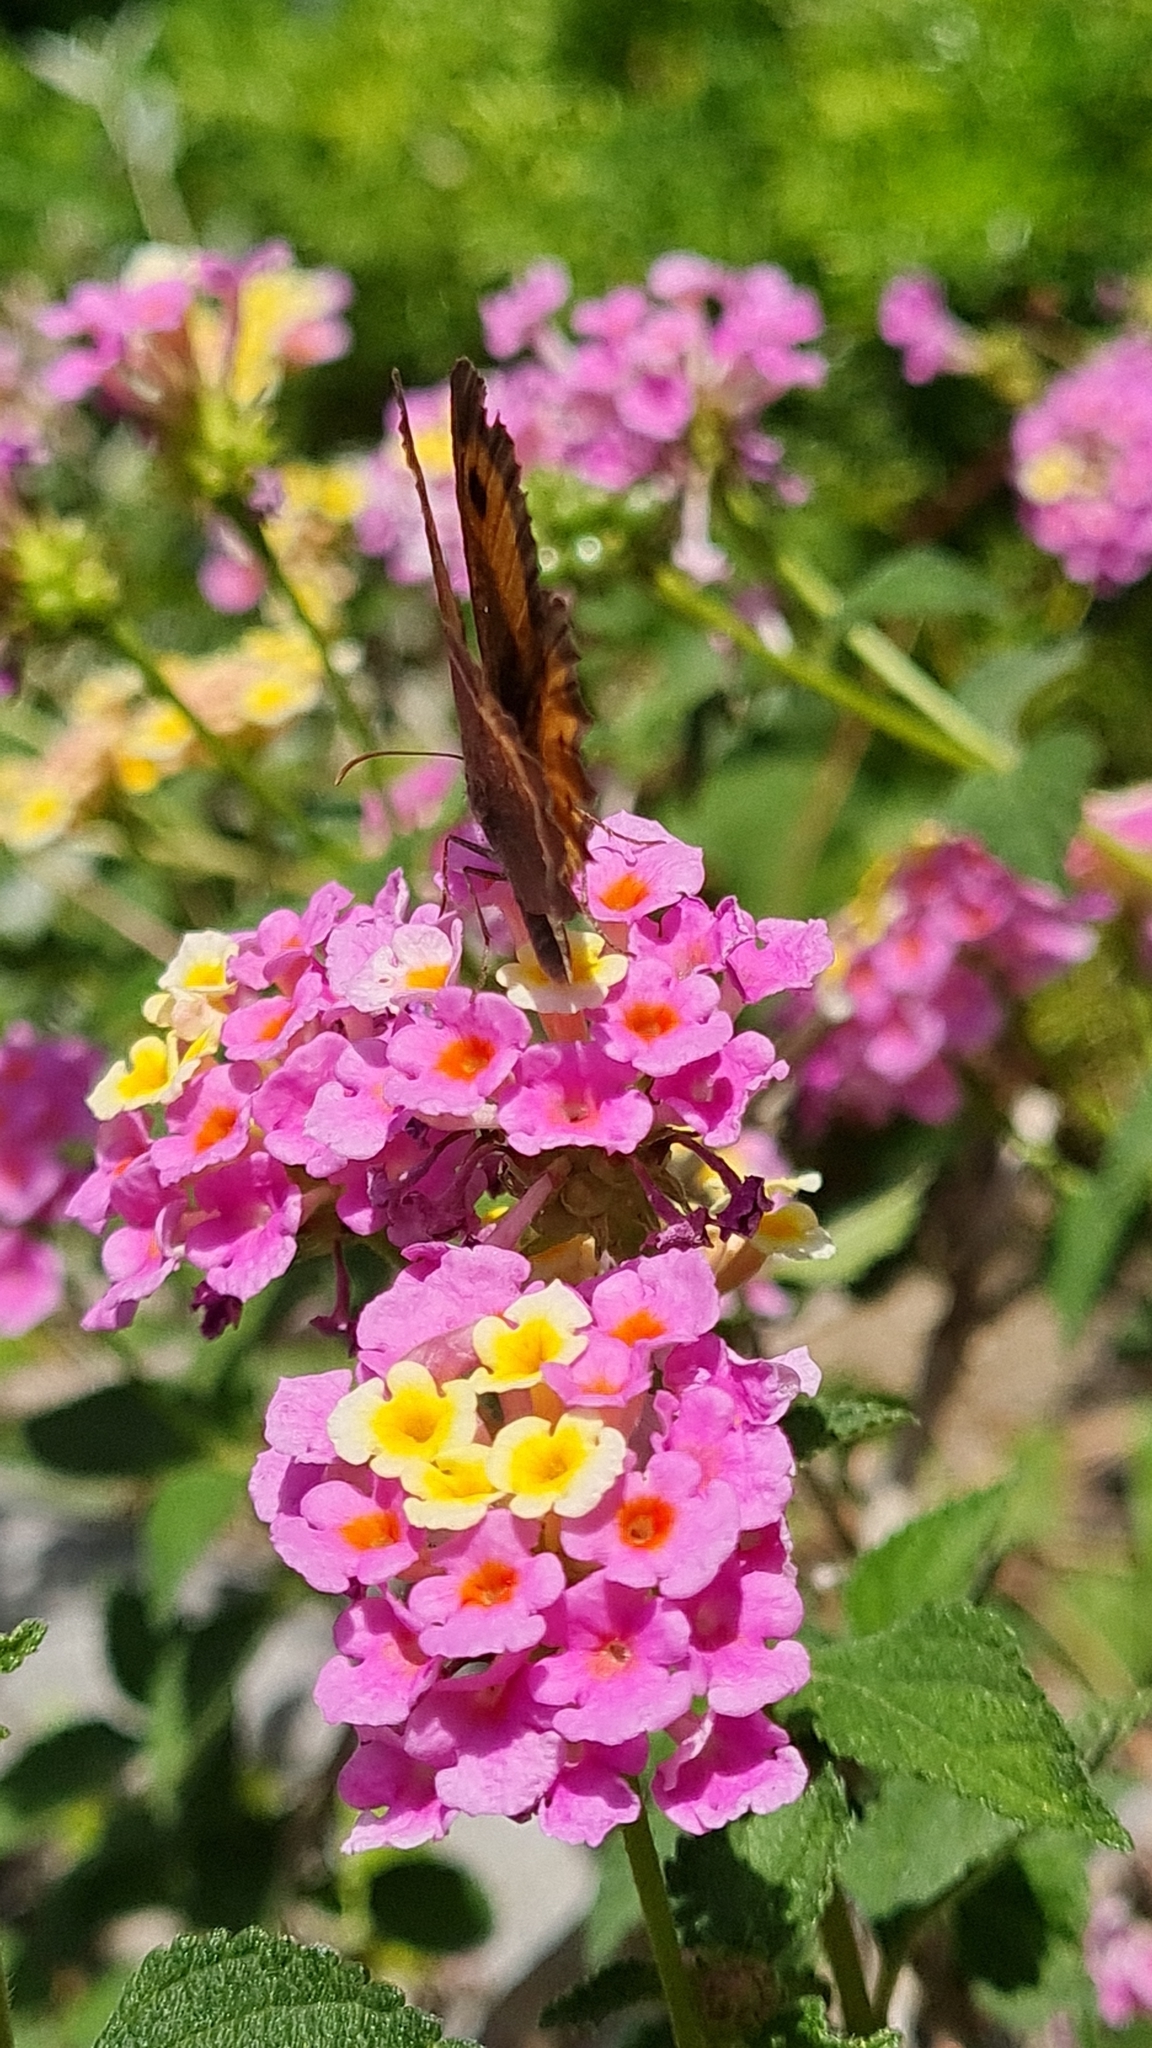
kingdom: Animalia
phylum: Arthropoda
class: Insecta
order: Lepidoptera
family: Nymphalidae
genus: Pyronia
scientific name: Pyronia bathseba
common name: Spanish gatekeeper
